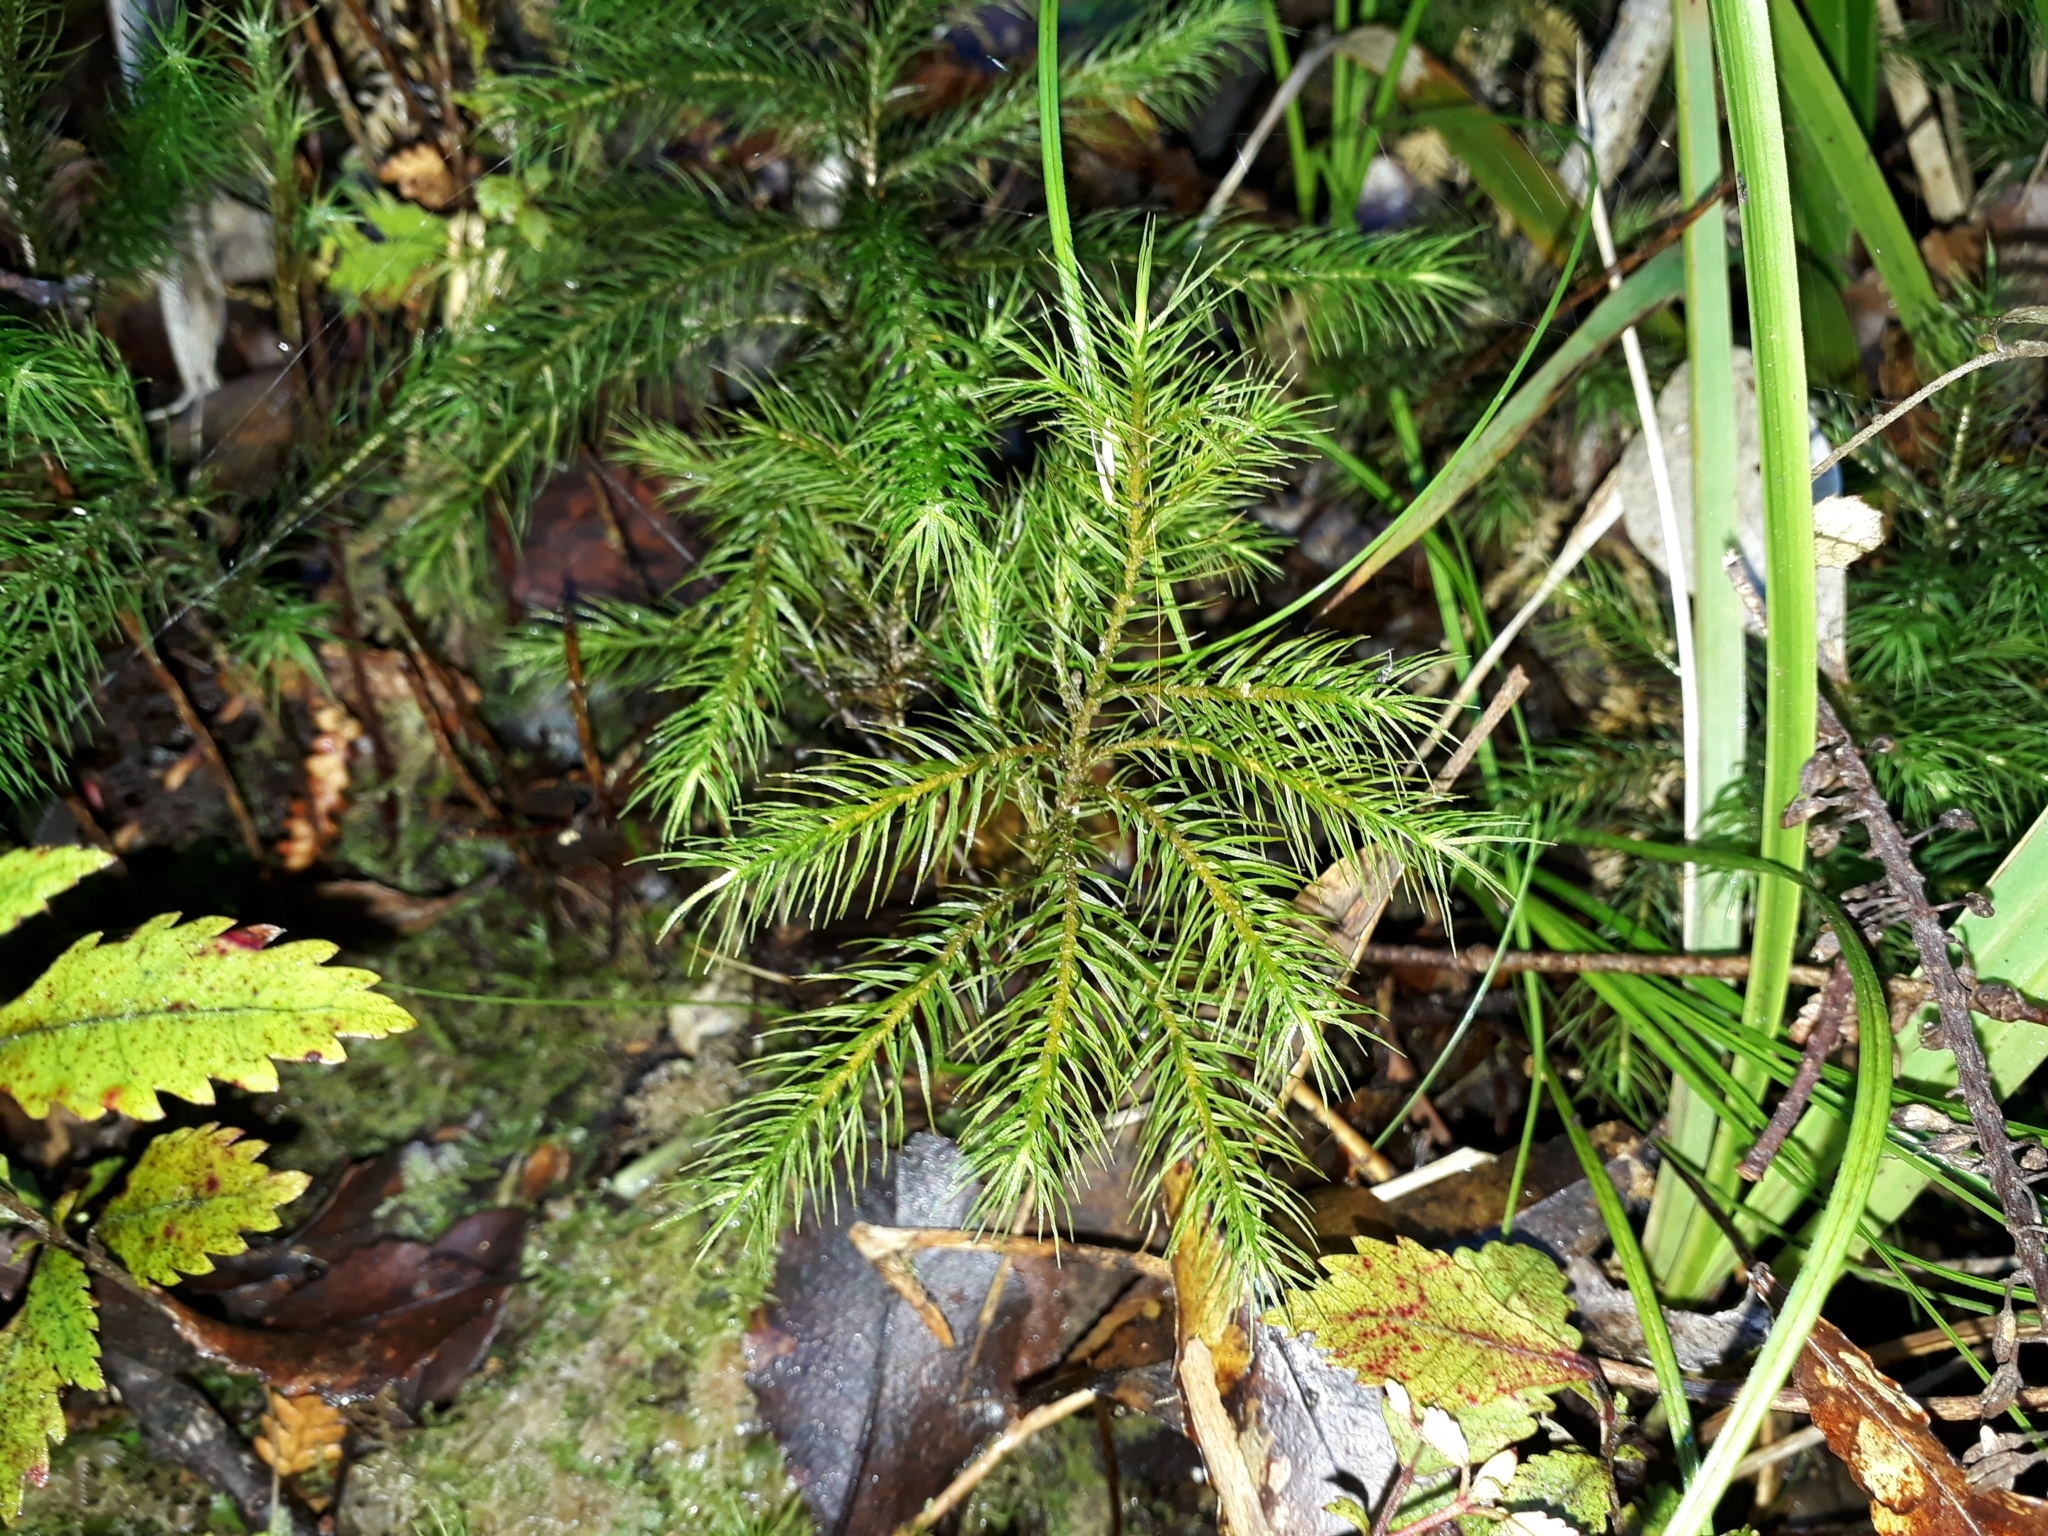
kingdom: Plantae
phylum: Bryophyta
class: Polytrichopsida
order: Polytrichales
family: Polytrichaceae
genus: Dendroligotrichum
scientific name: Dendroligotrichum tongariroense
